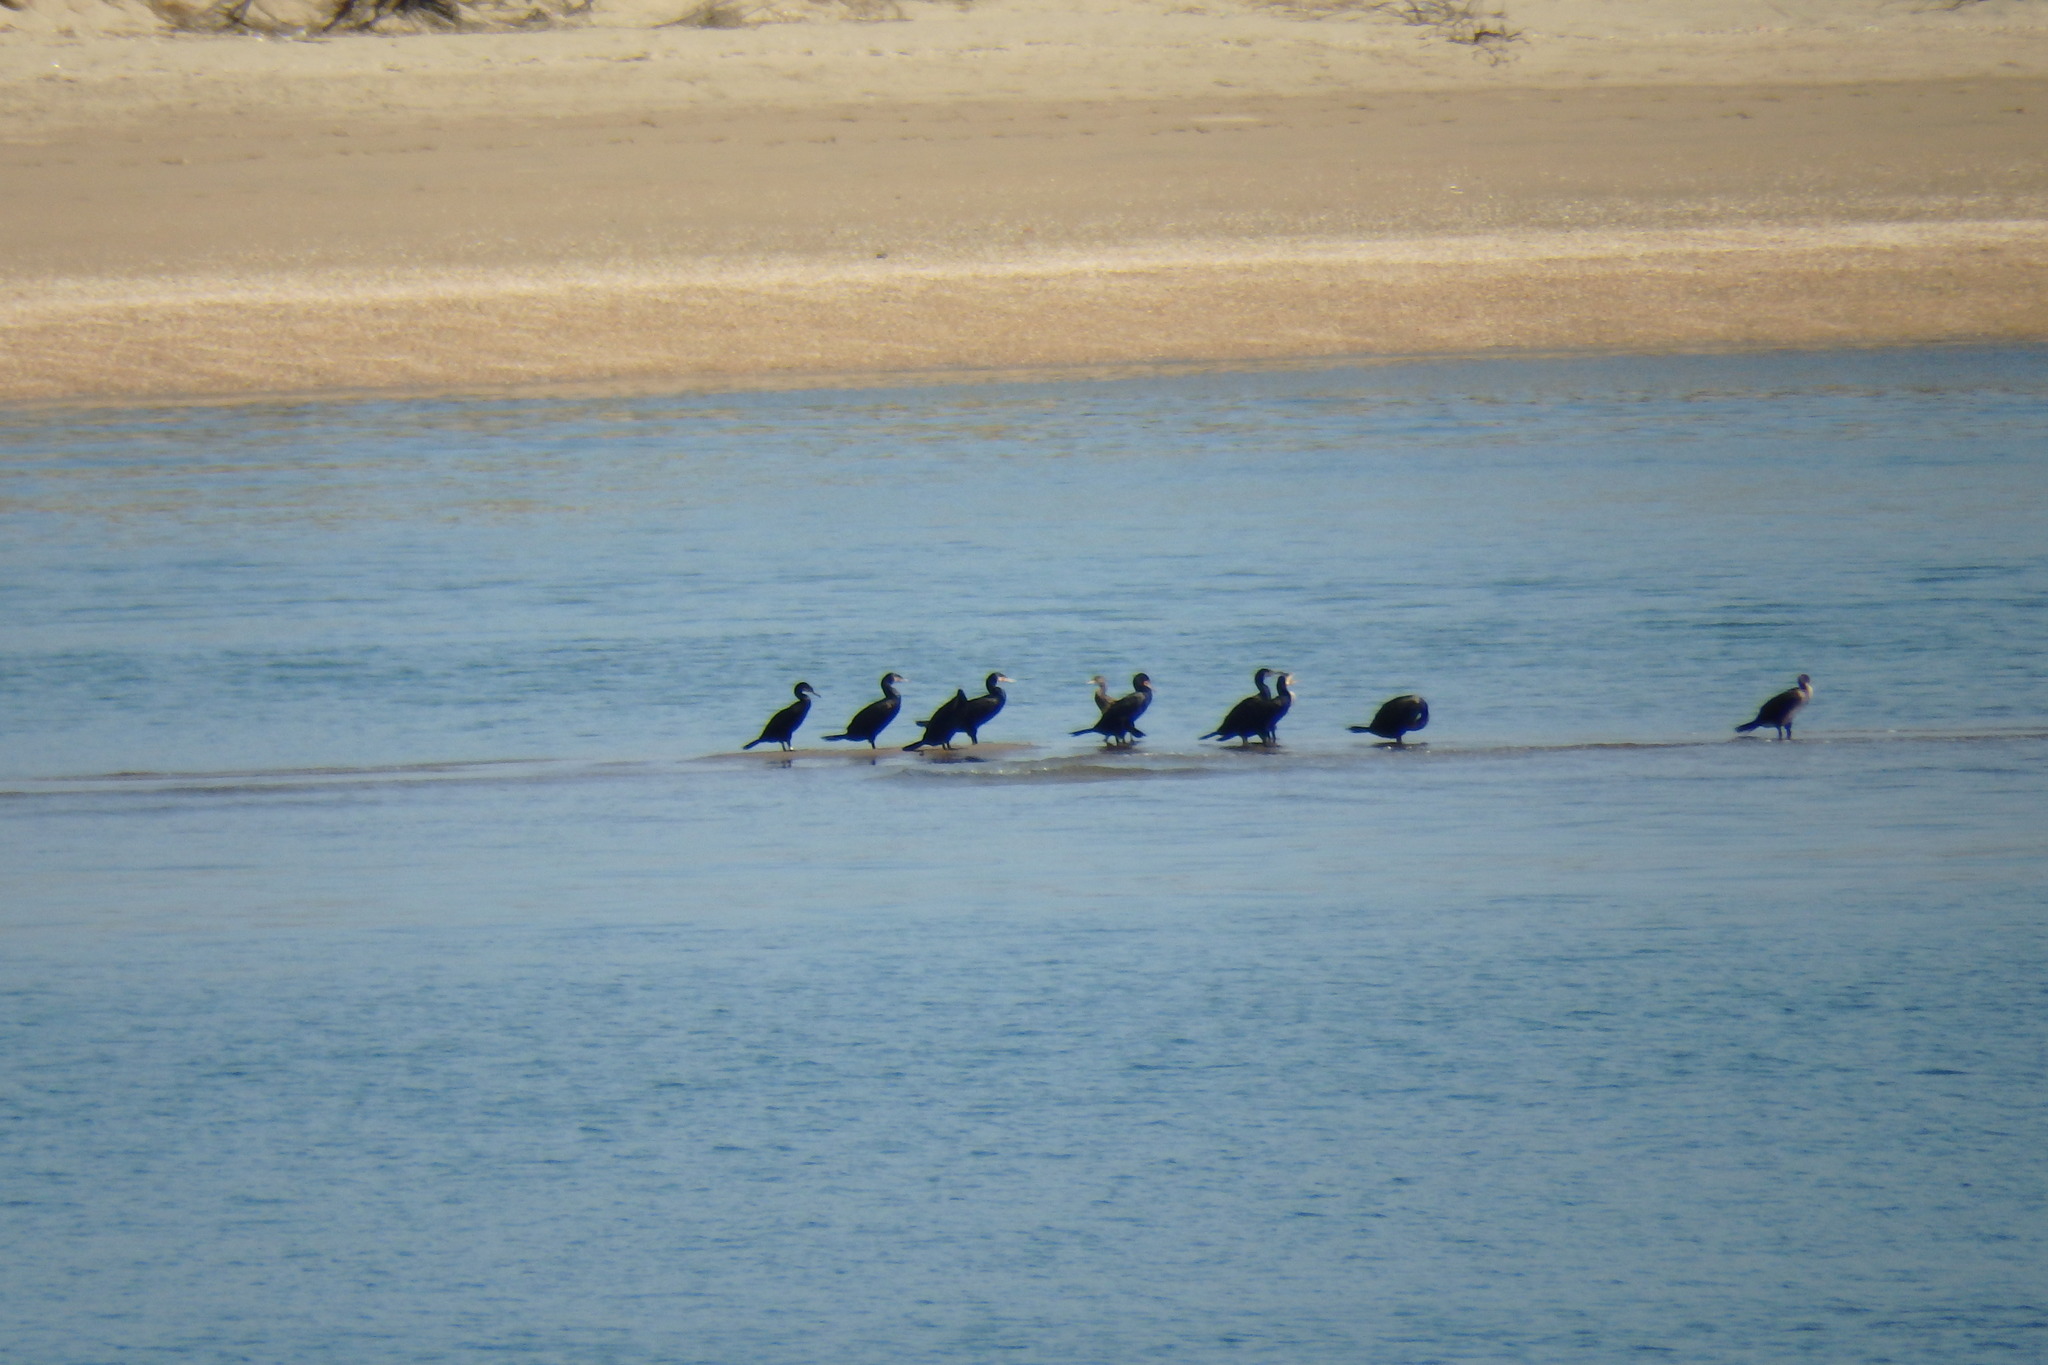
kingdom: Animalia
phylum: Chordata
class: Aves
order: Suliformes
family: Phalacrocoracidae
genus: Phalacrocorax
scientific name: Phalacrocorax carbo
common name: Great cormorant
